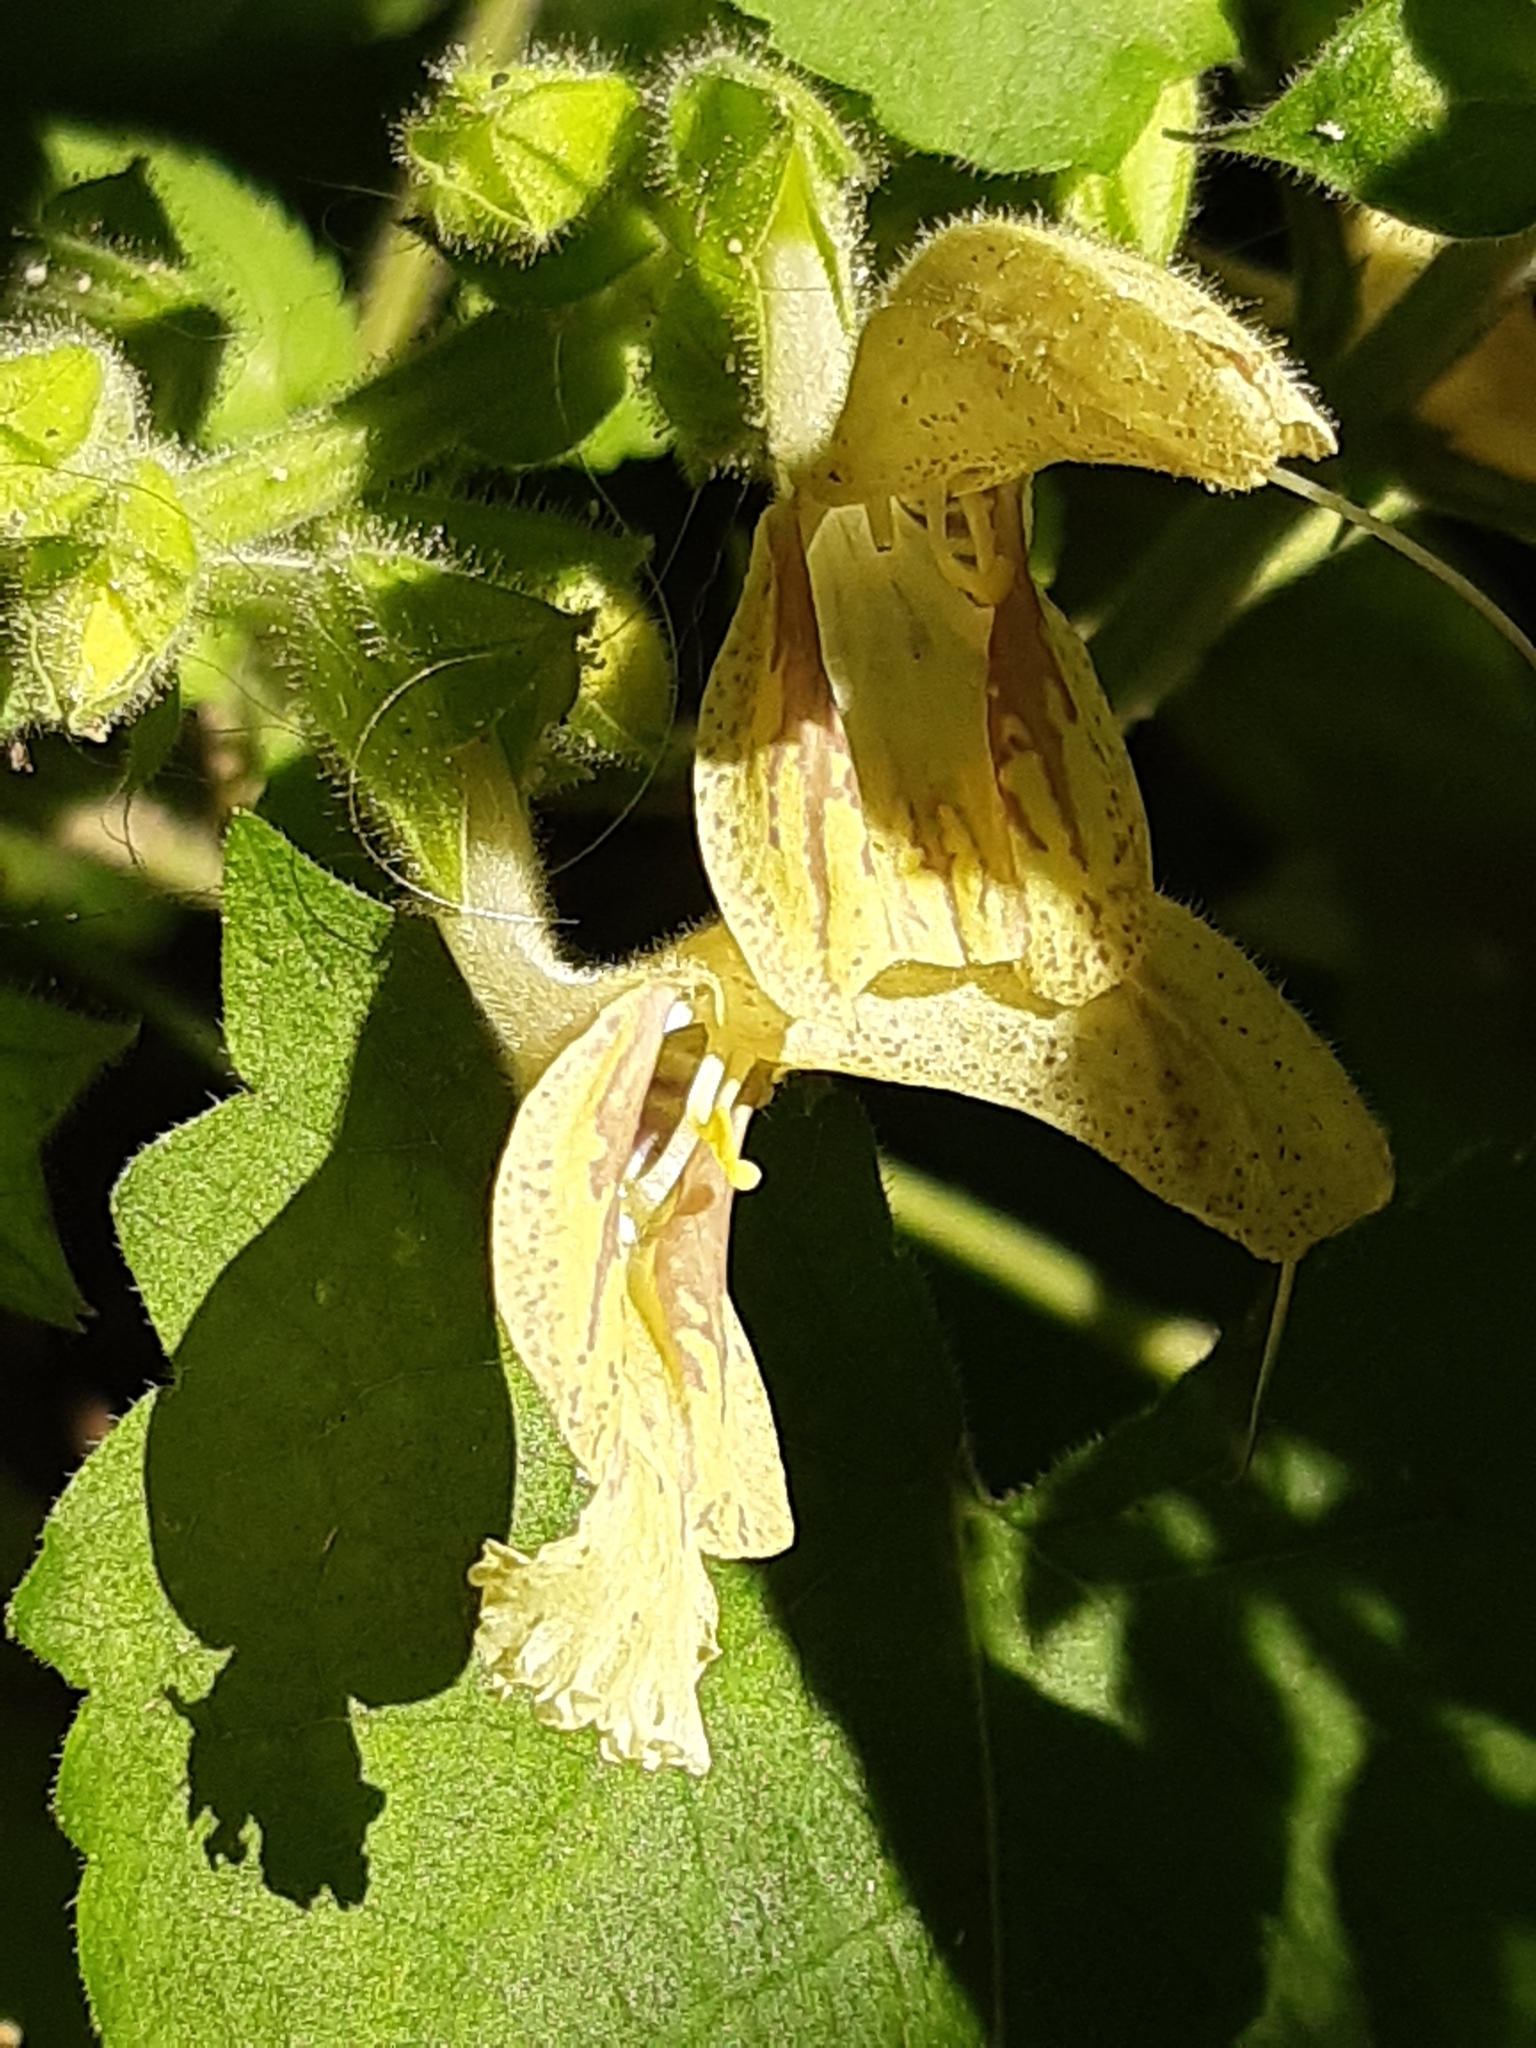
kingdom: Plantae
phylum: Tracheophyta
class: Magnoliopsida
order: Lamiales
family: Lamiaceae
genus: Salvia
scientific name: Salvia glutinosa
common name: Sticky clary
